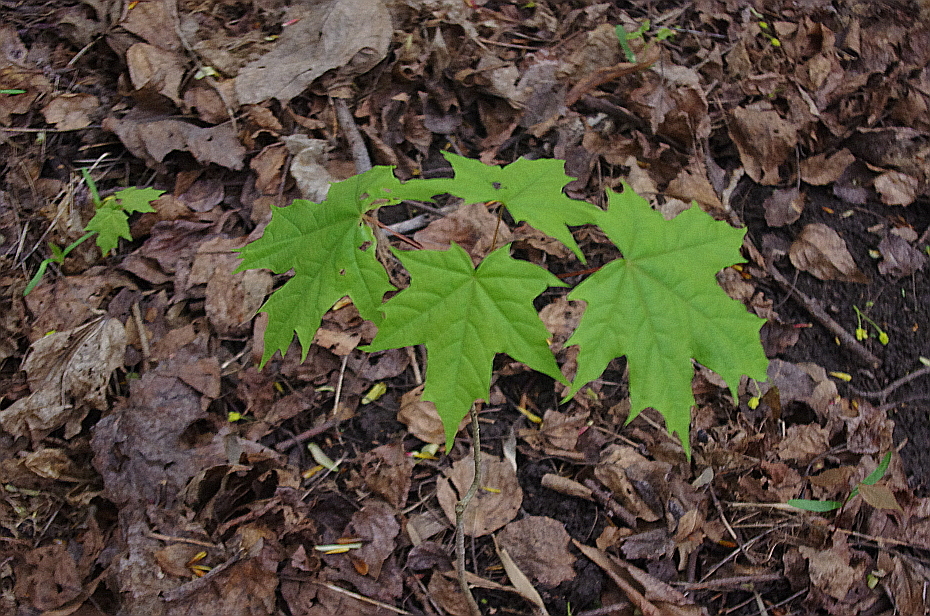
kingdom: Plantae
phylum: Tracheophyta
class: Magnoliopsida
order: Sapindales
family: Sapindaceae
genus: Acer
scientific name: Acer platanoides
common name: Norway maple
